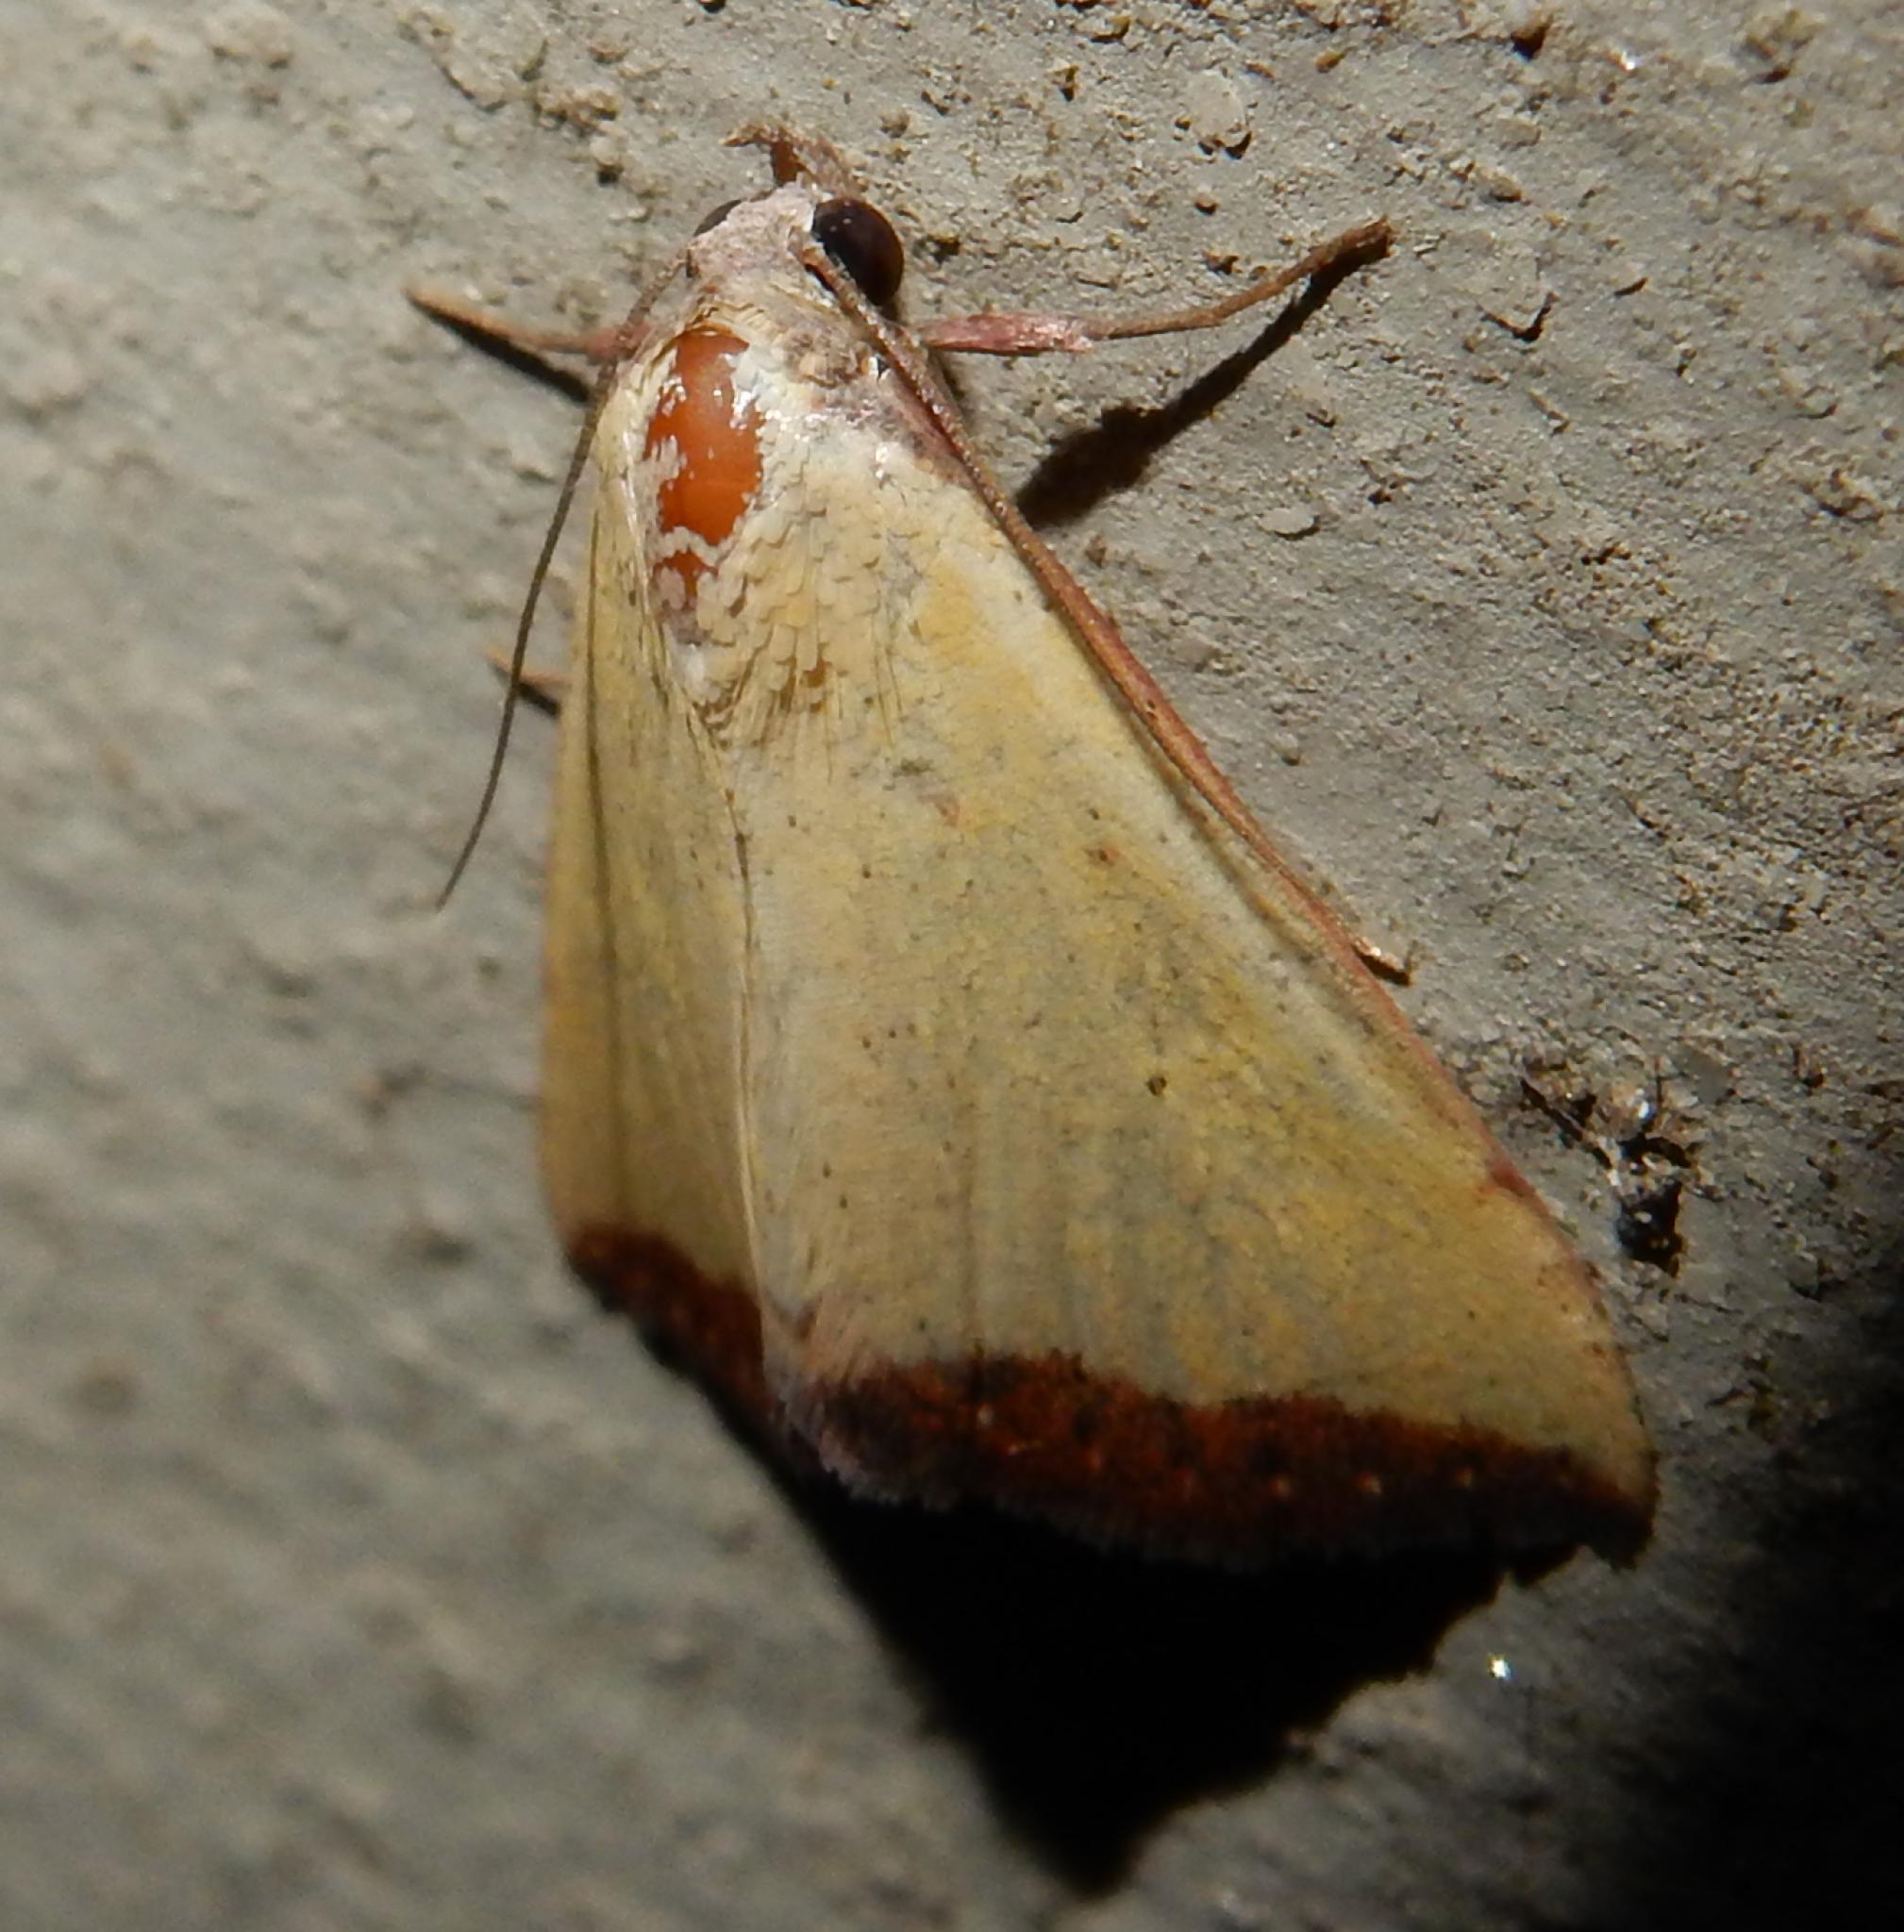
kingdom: Animalia
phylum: Arthropoda
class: Insecta
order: Lepidoptera
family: Erebidae
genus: Phytometra
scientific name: Phytometra subflavalis
